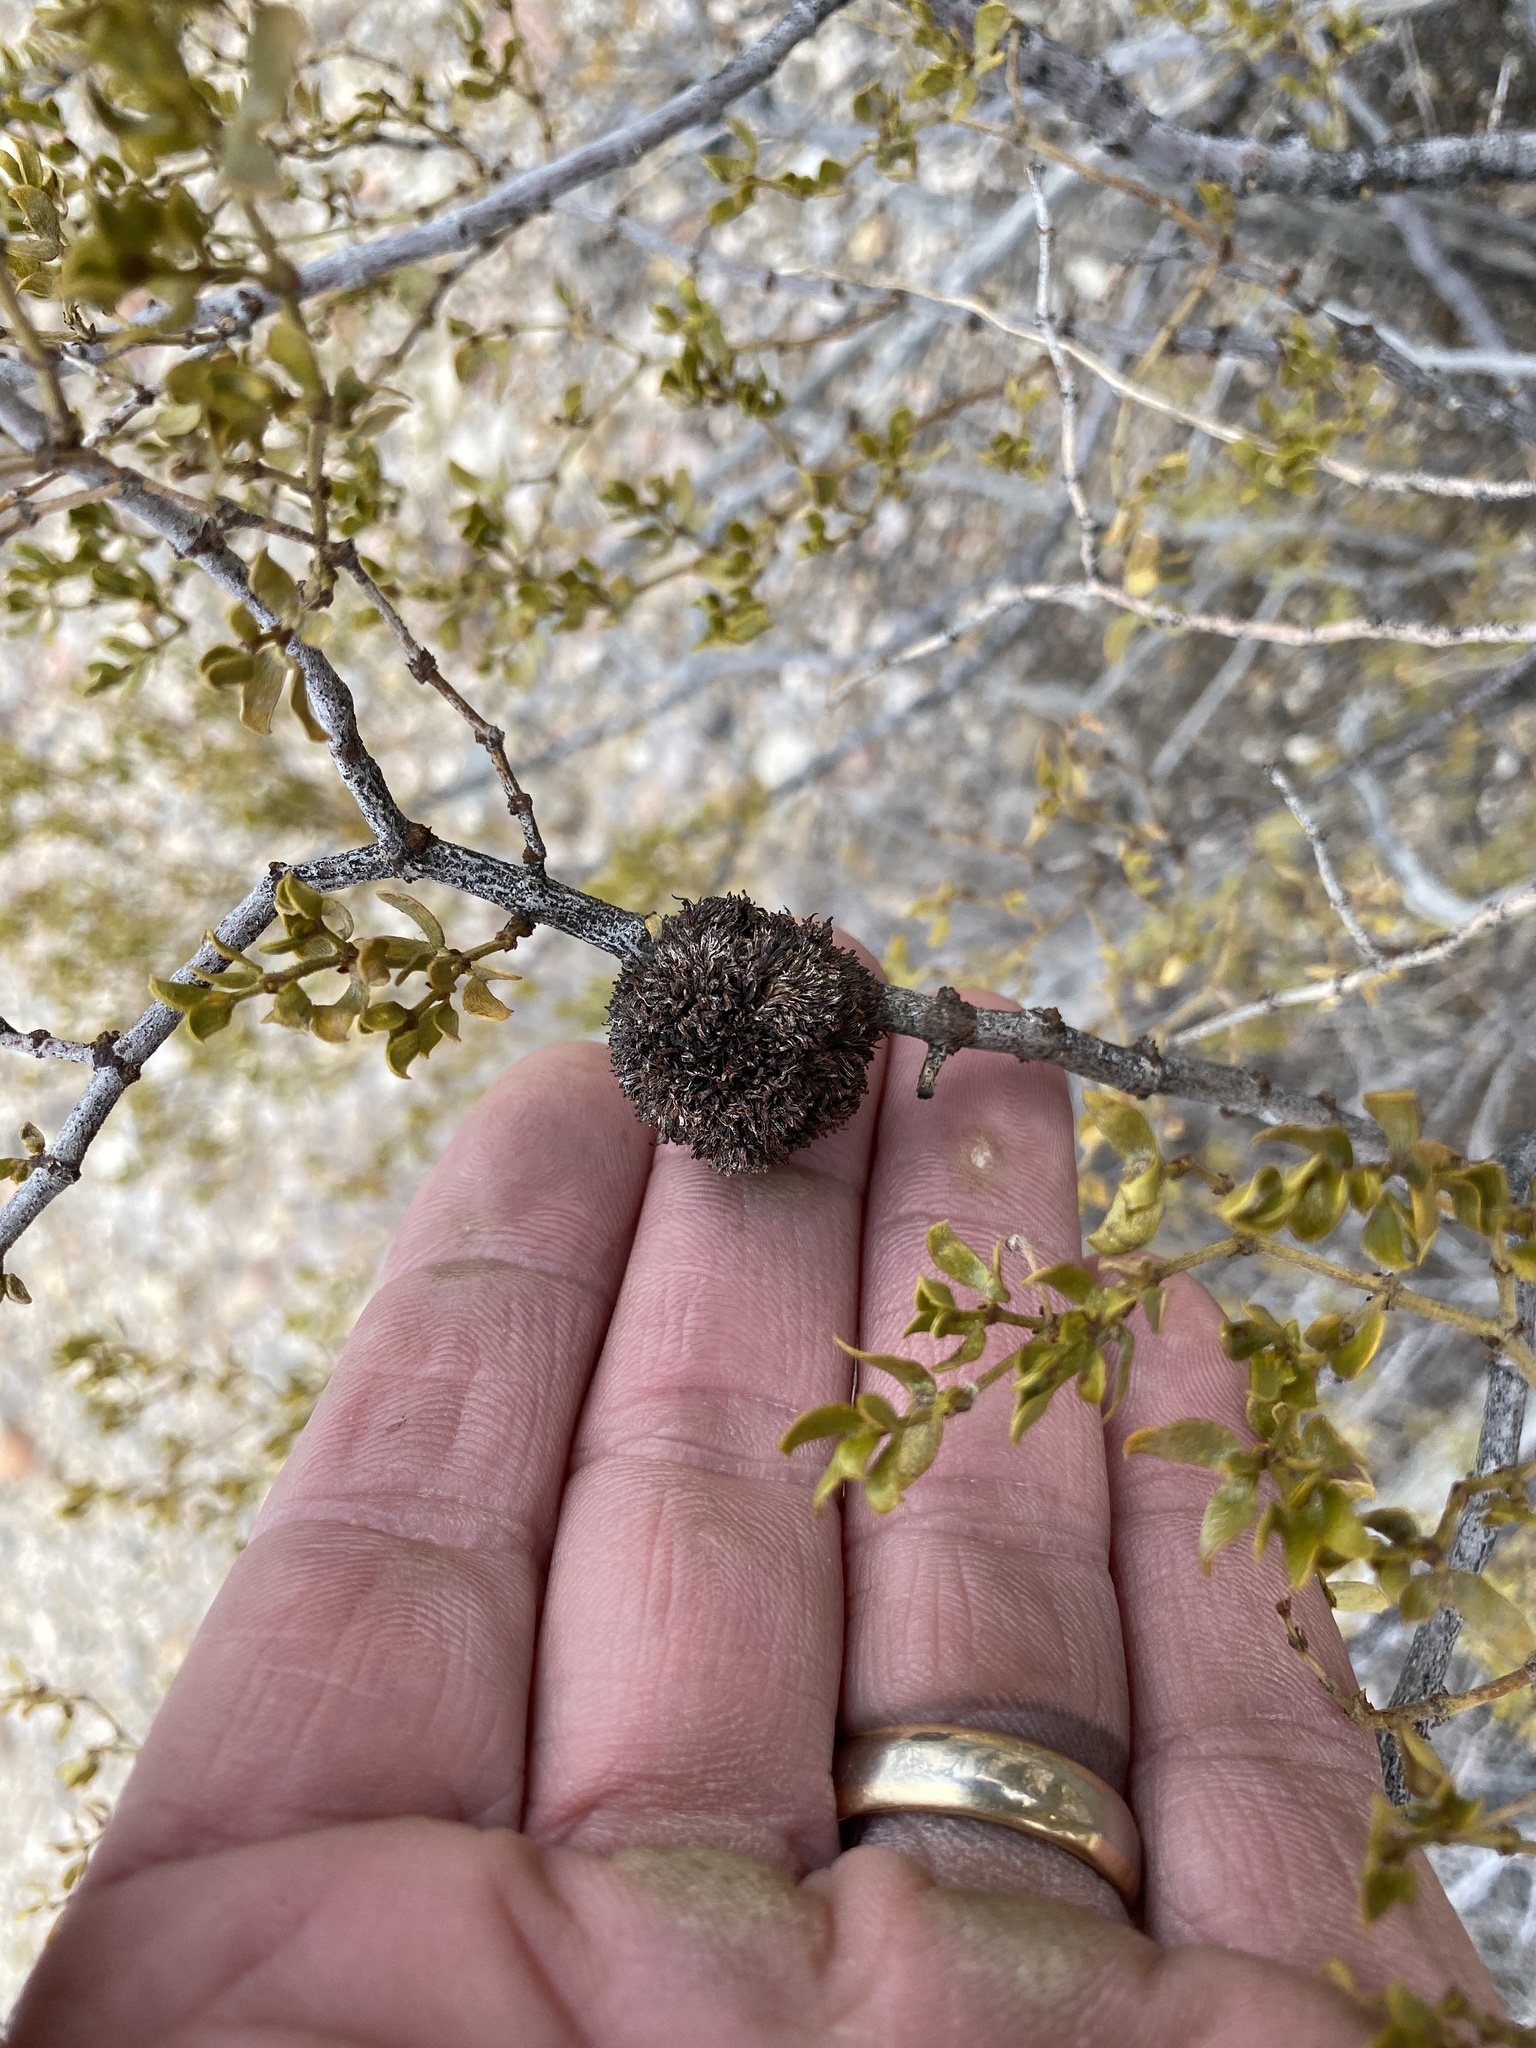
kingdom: Animalia
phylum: Arthropoda
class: Insecta
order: Diptera
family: Cecidomyiidae
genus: Asphondylia
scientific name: Asphondylia auripila
